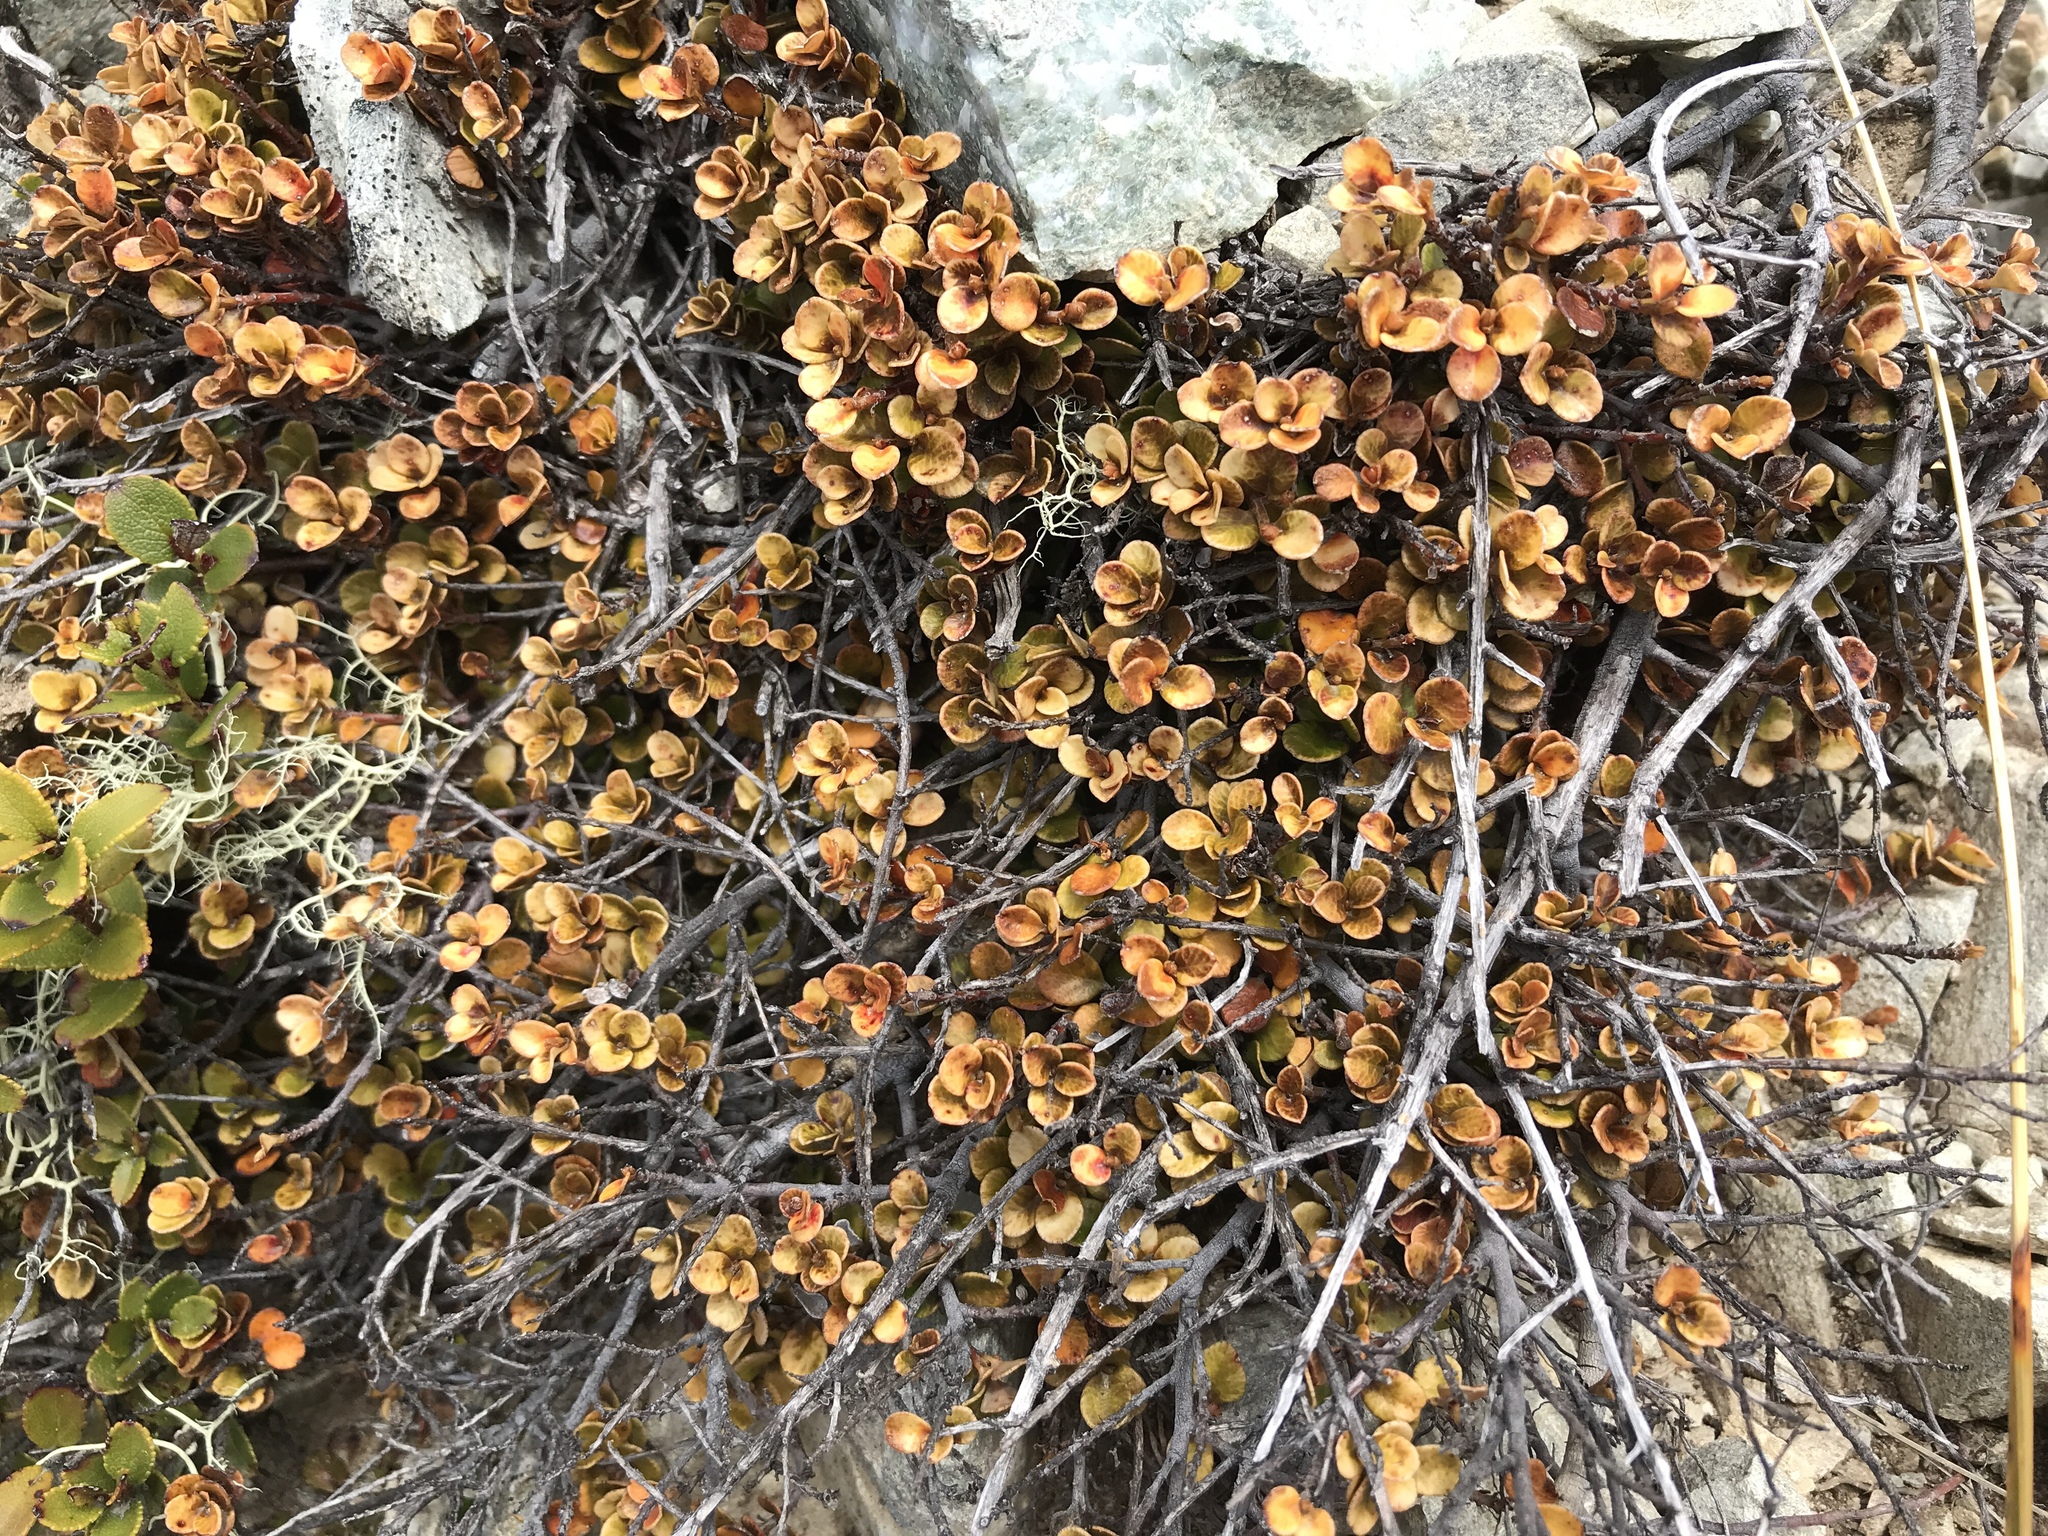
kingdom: Plantae
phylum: Tracheophyta
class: Magnoliopsida
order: Ericales
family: Primulaceae
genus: Myrsine
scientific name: Myrsine nummularia
